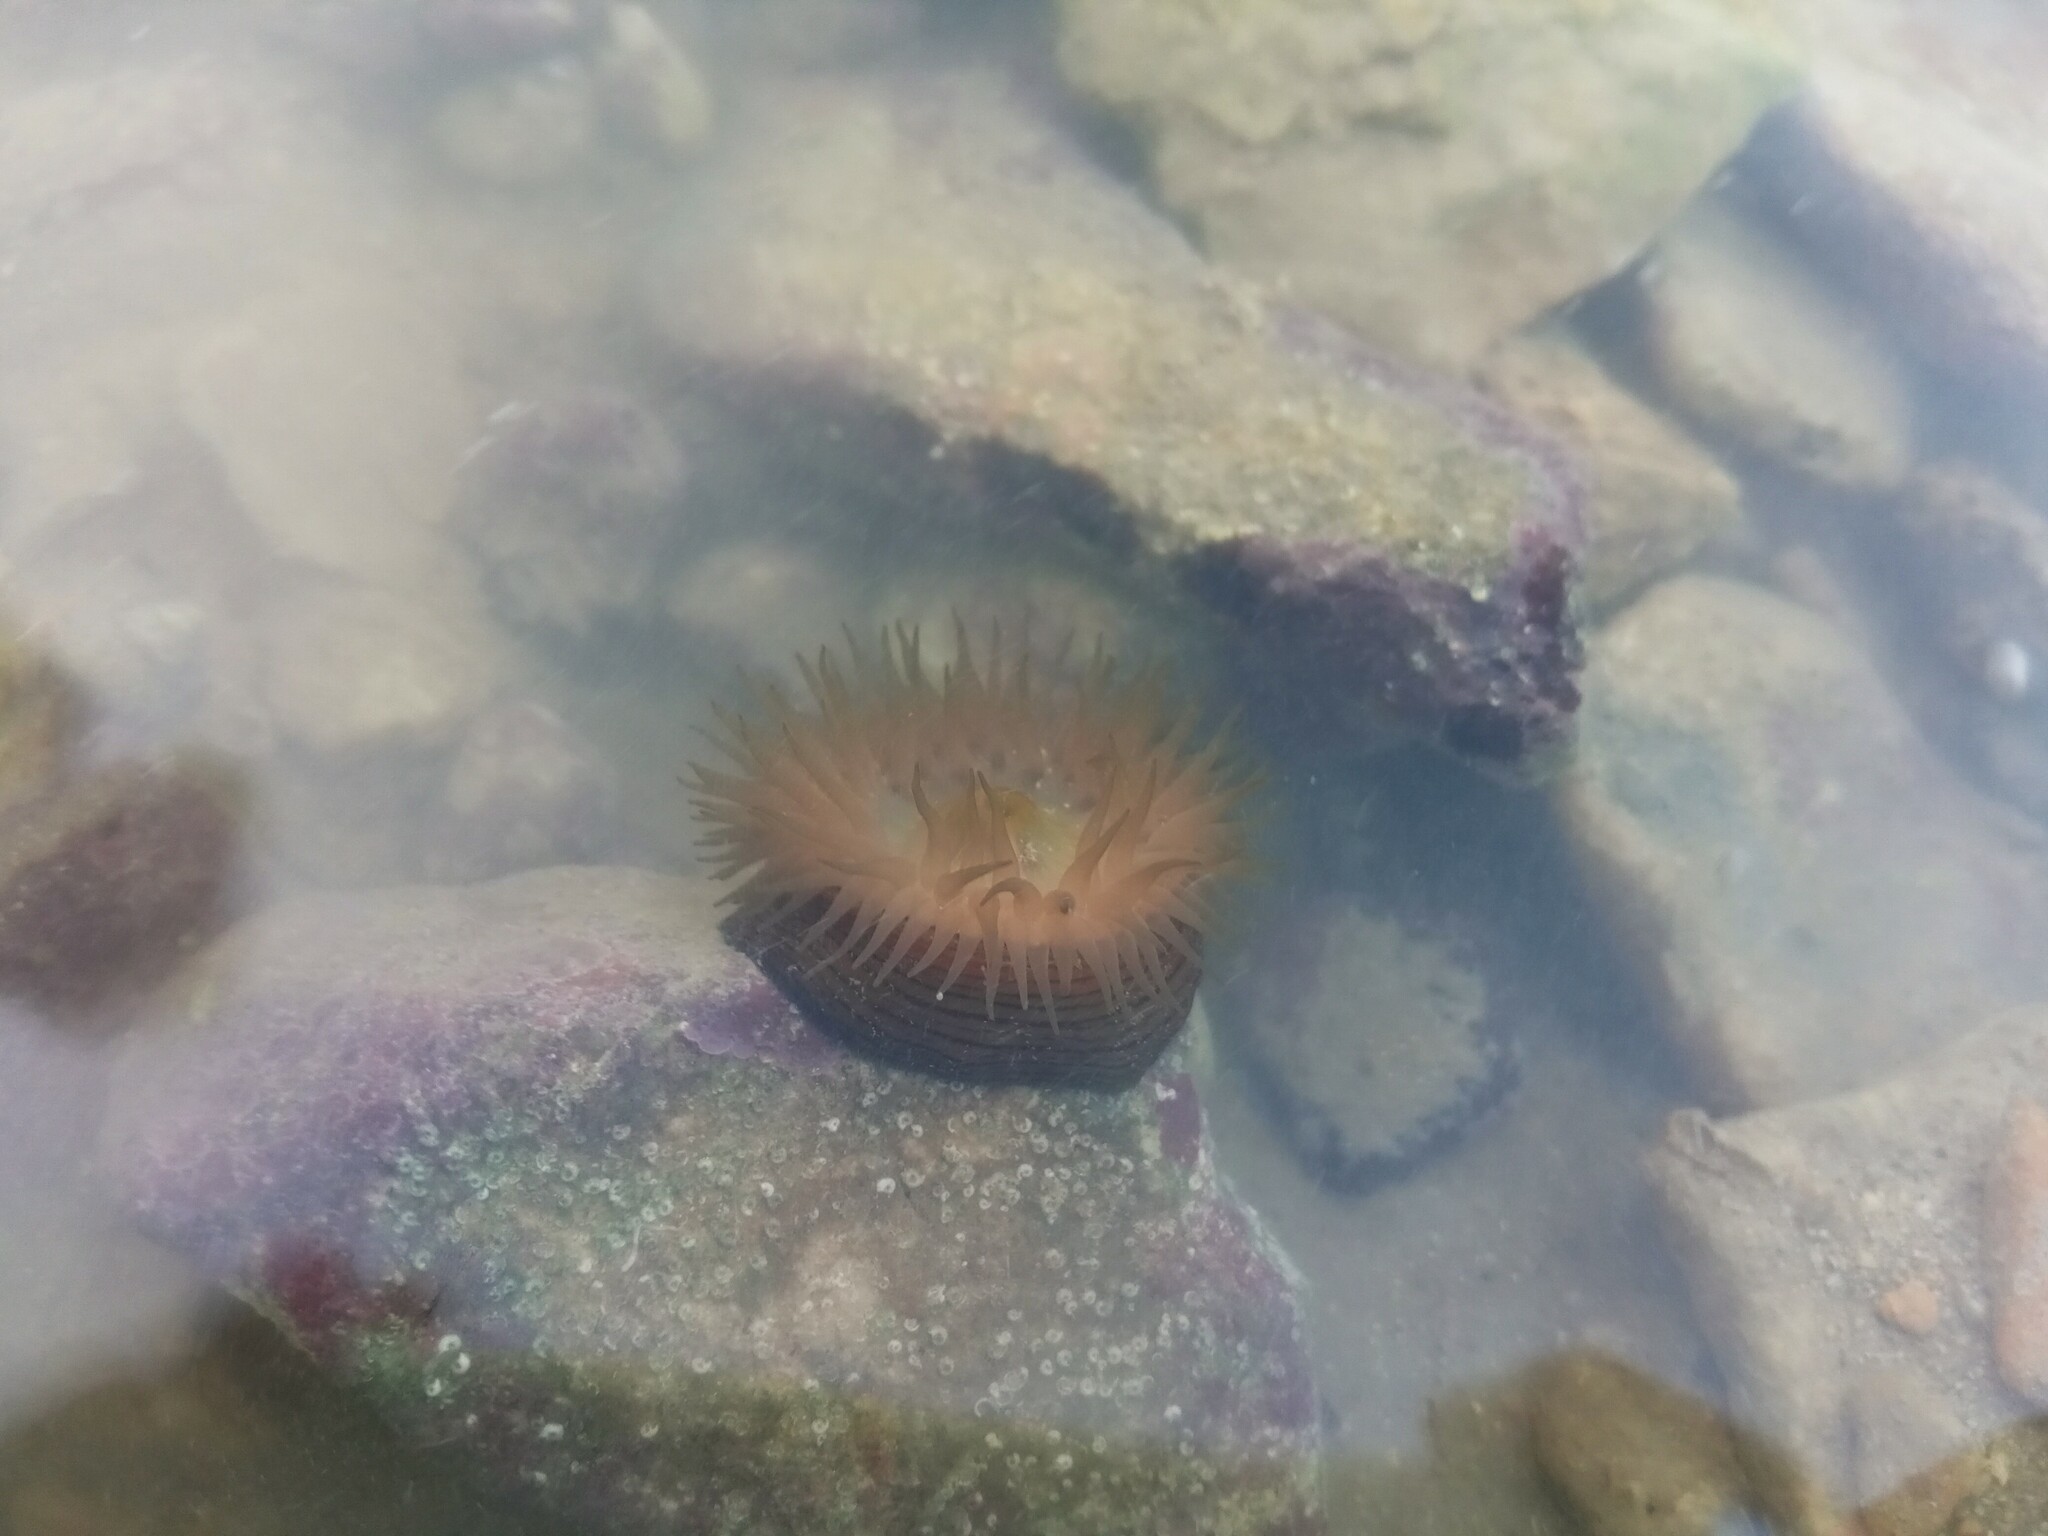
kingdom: Animalia
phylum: Cnidaria
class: Anthozoa
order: Actiniaria
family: Actiniidae
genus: Actinia
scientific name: Actinia cari
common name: Green sea anemone
